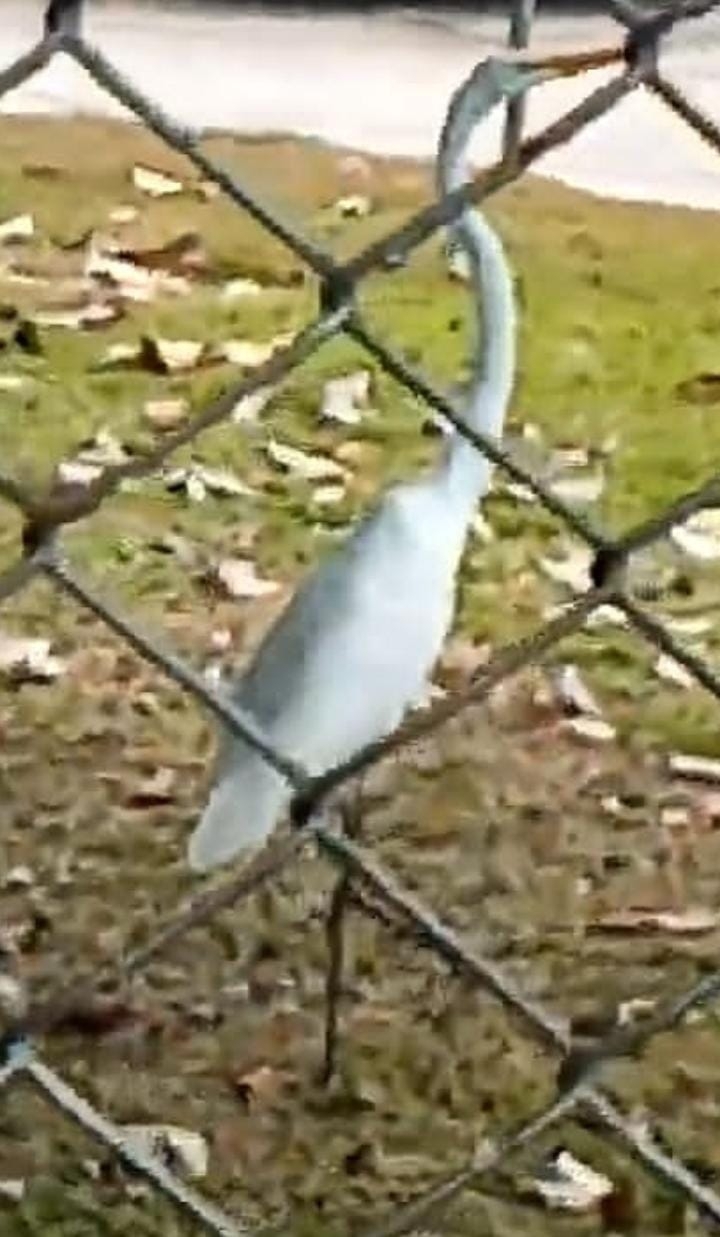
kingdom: Animalia
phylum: Chordata
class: Aves
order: Pelecaniformes
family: Ardeidae
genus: Ardea
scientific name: Ardea alba
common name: Great egret
